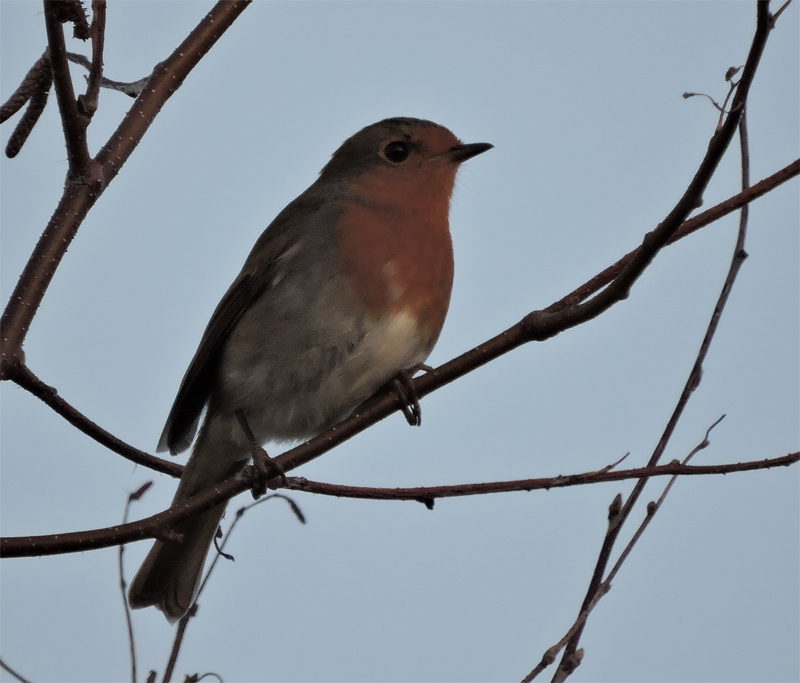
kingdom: Animalia
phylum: Chordata
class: Aves
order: Passeriformes
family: Muscicapidae
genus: Erithacus
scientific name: Erithacus rubecula
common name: European robin
